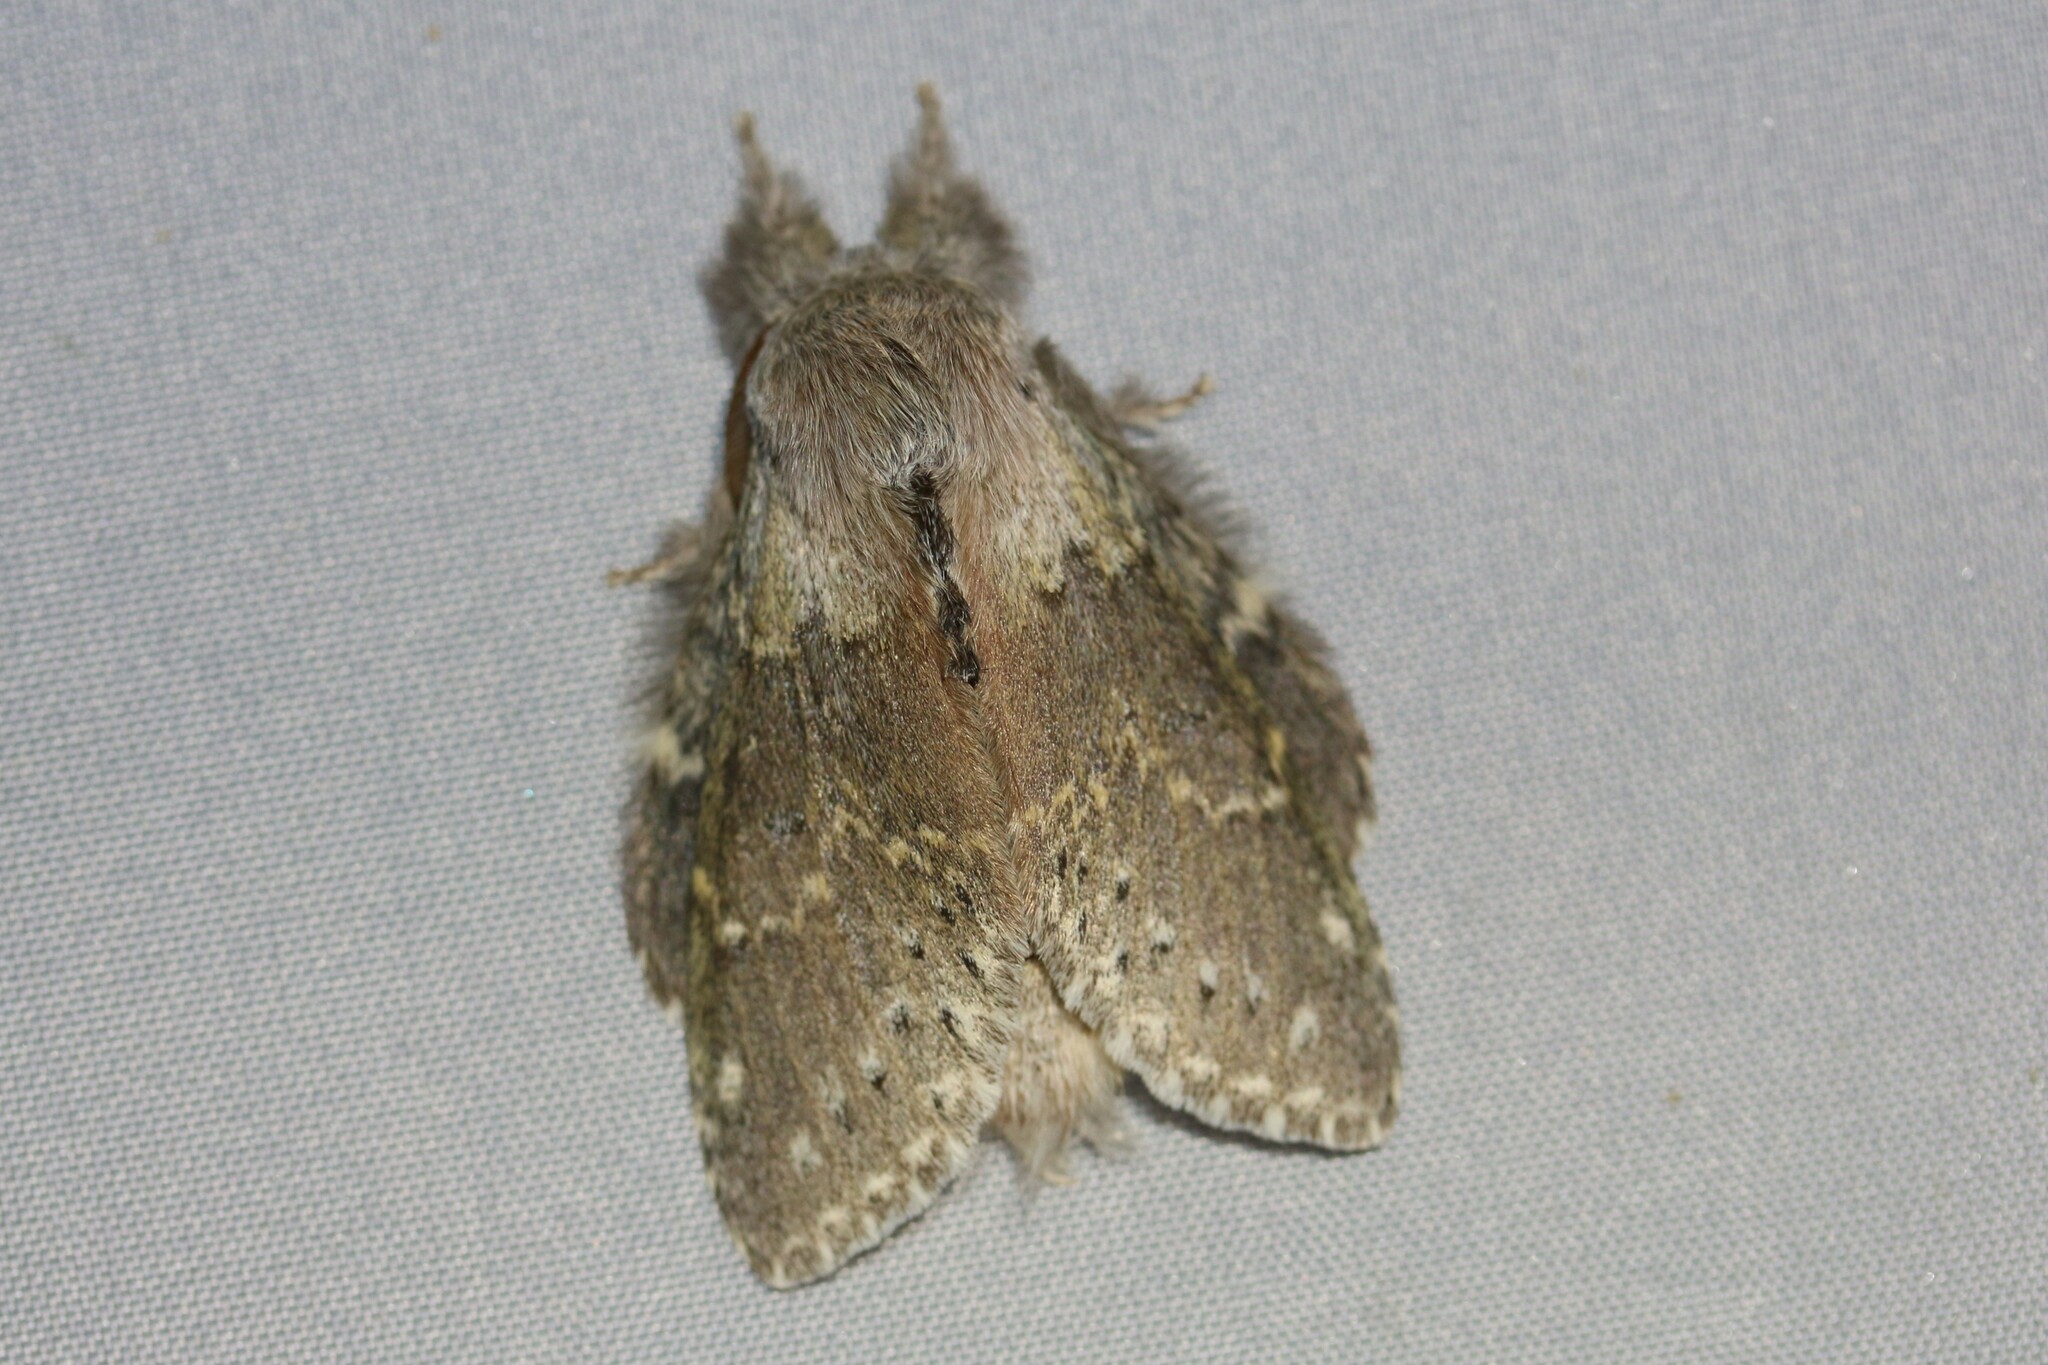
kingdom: Animalia
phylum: Arthropoda
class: Insecta
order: Lepidoptera
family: Notodontidae
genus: Stauropus
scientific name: Stauropus fagi
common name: Lobster moth
